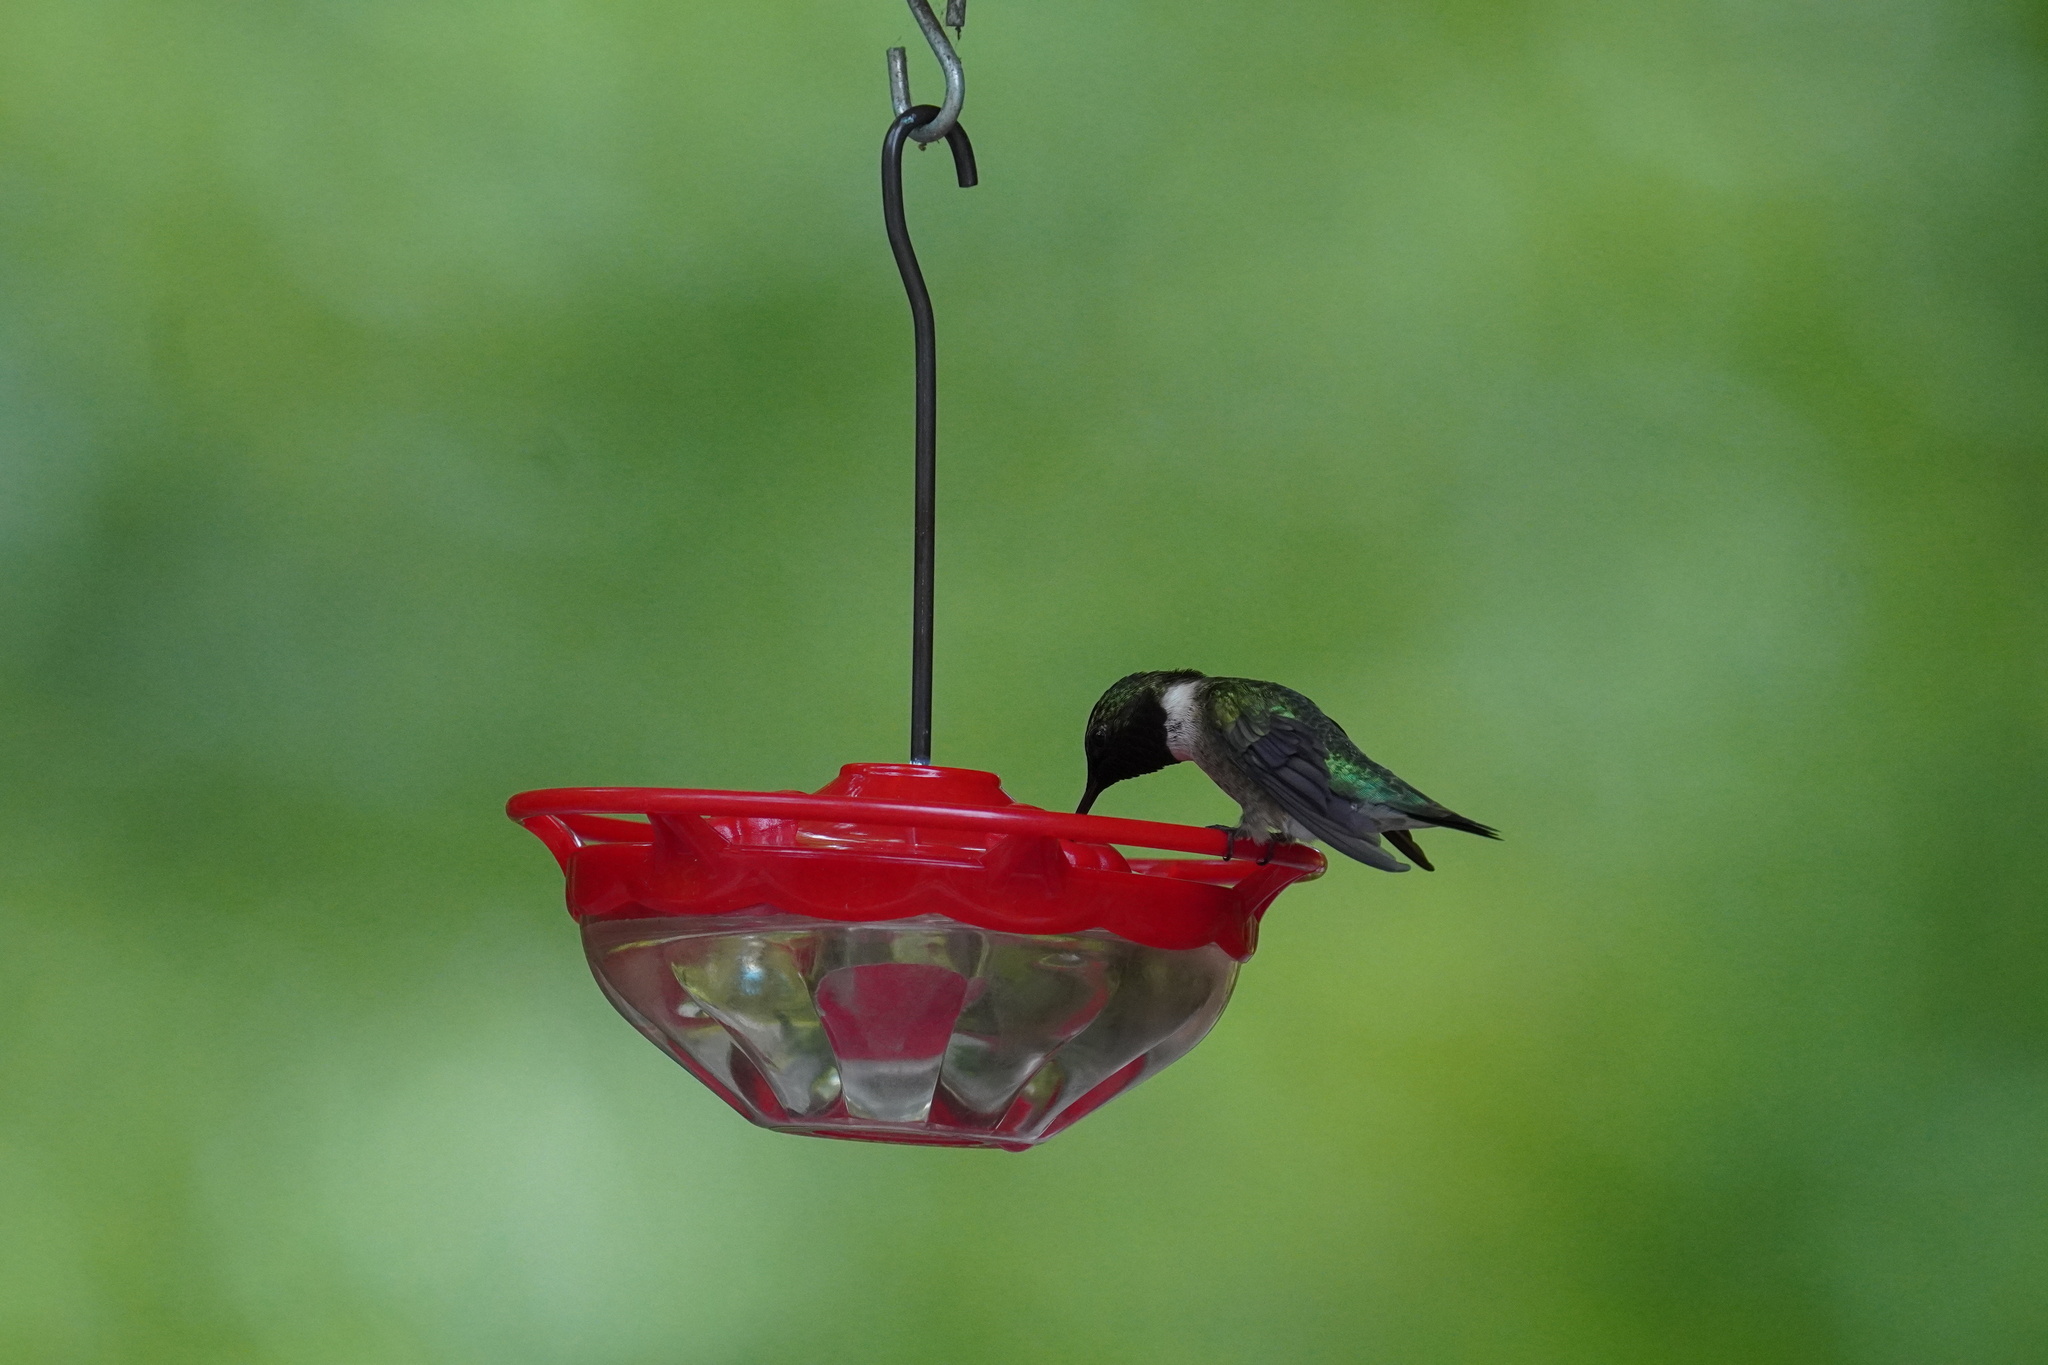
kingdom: Animalia
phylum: Chordata
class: Aves
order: Apodiformes
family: Trochilidae
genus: Archilochus
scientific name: Archilochus colubris
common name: Ruby-throated hummingbird
